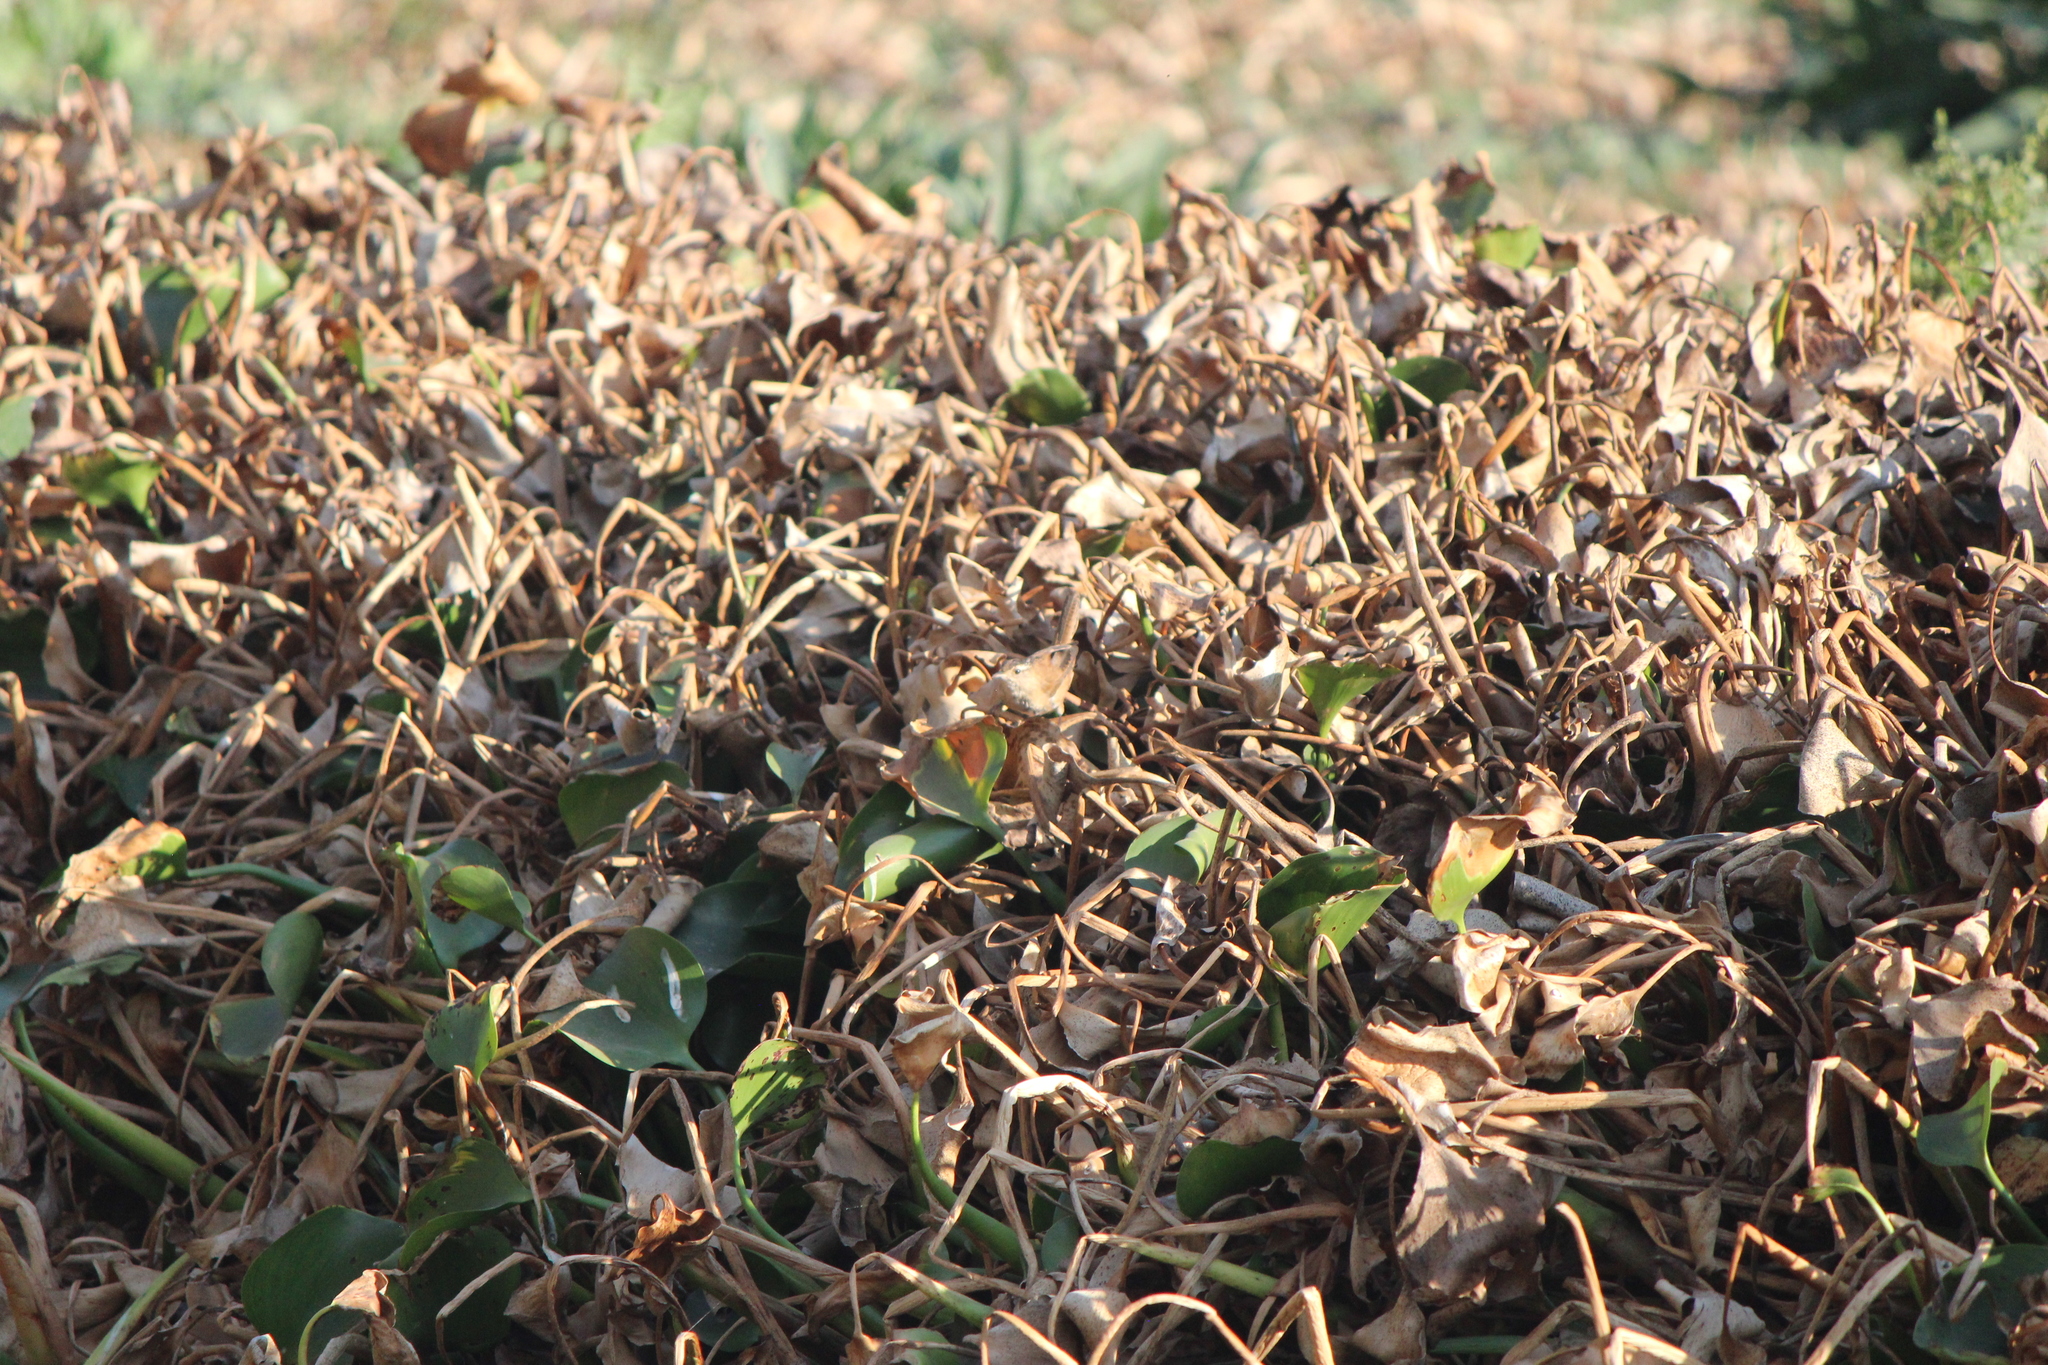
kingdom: Animalia
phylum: Chordata
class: Aves
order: Passeriformes
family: Troglodytidae
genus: Cistothorus
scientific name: Cistothorus palustris
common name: Marsh wren
